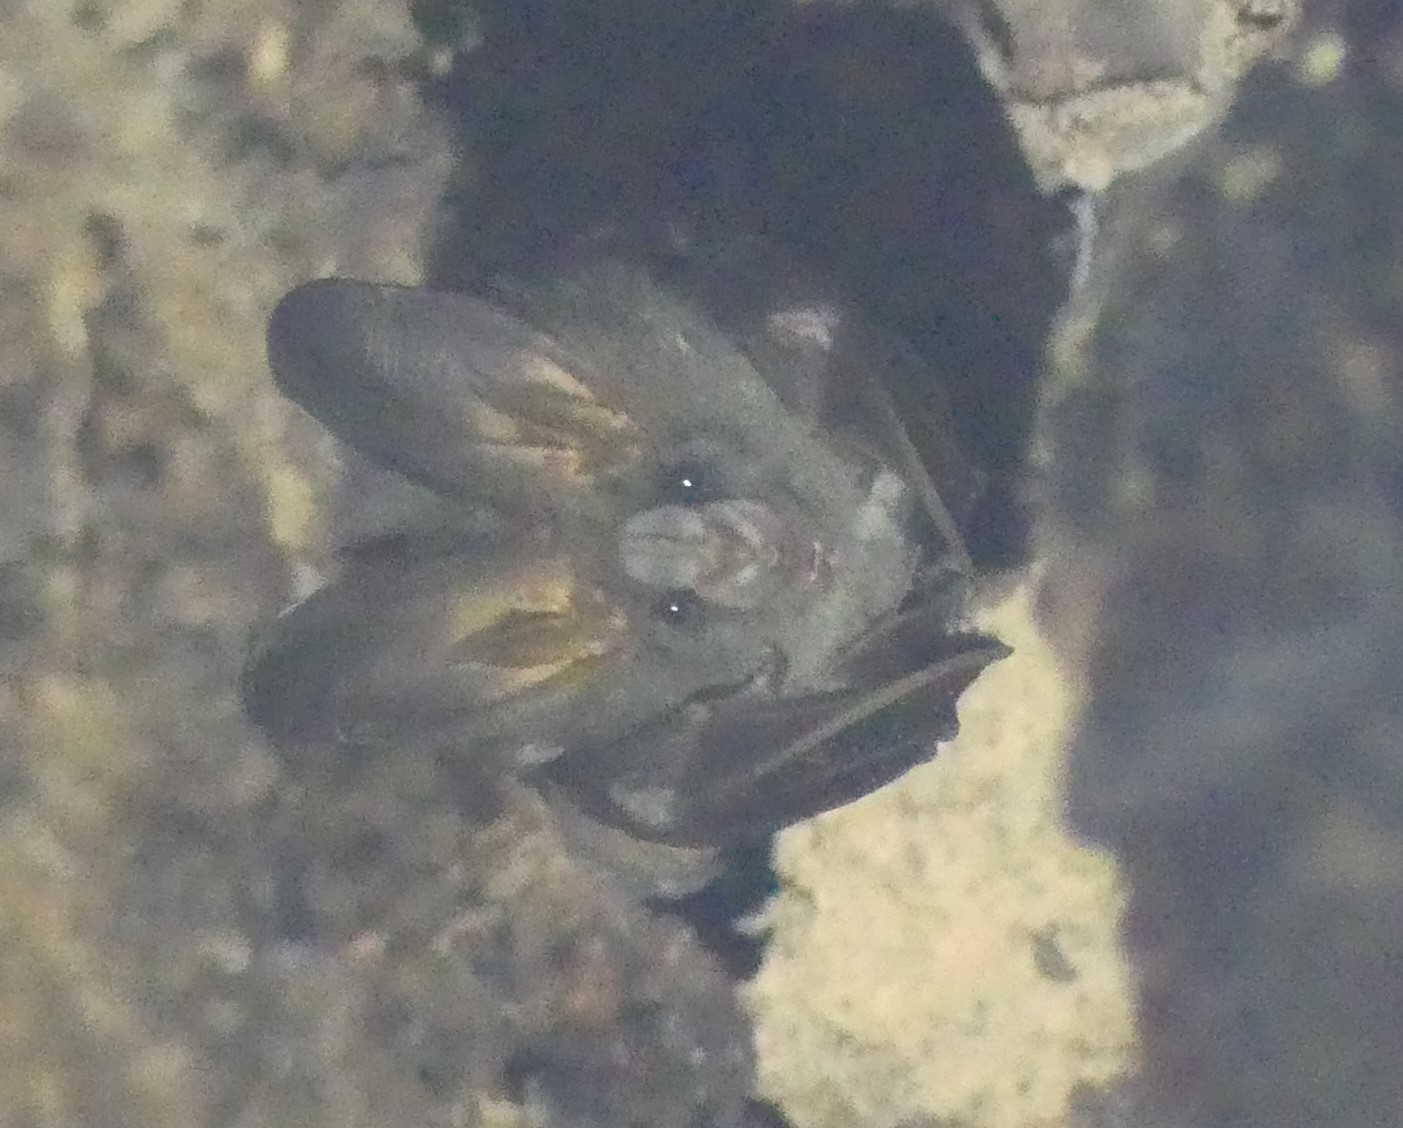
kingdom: Animalia
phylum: Chordata
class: Mammalia
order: Chiroptera
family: Megadermatidae
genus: Megaderma
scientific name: Megaderma spasma
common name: Lesser false vampire bat
